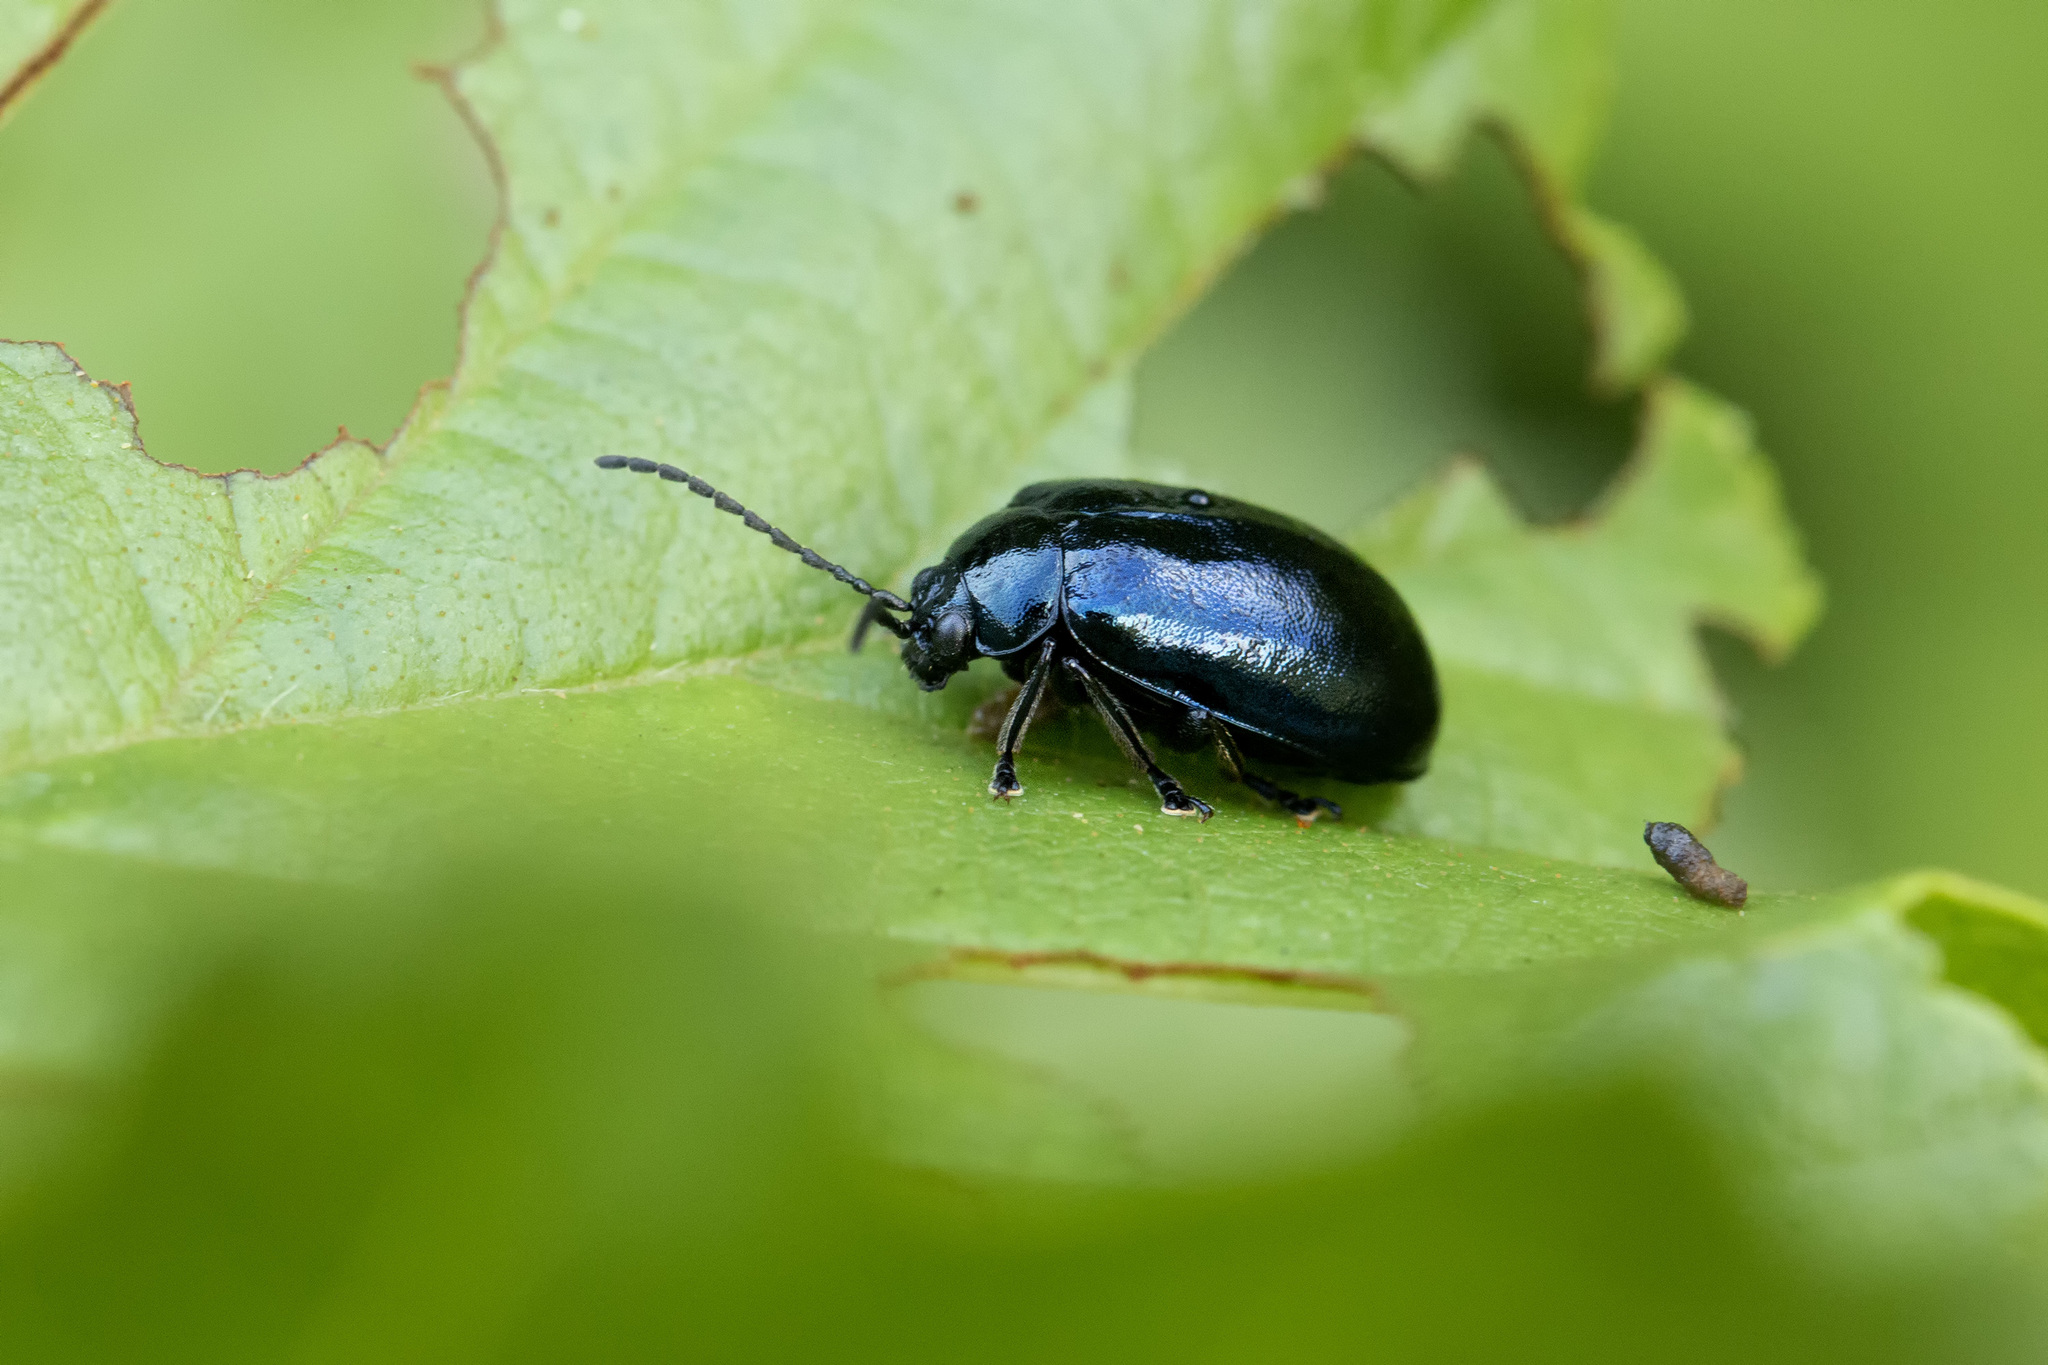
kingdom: Animalia
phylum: Arthropoda
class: Insecta
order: Coleoptera
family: Chrysomelidae
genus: Agelastica
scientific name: Agelastica alni
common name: Alder leaf beetle
